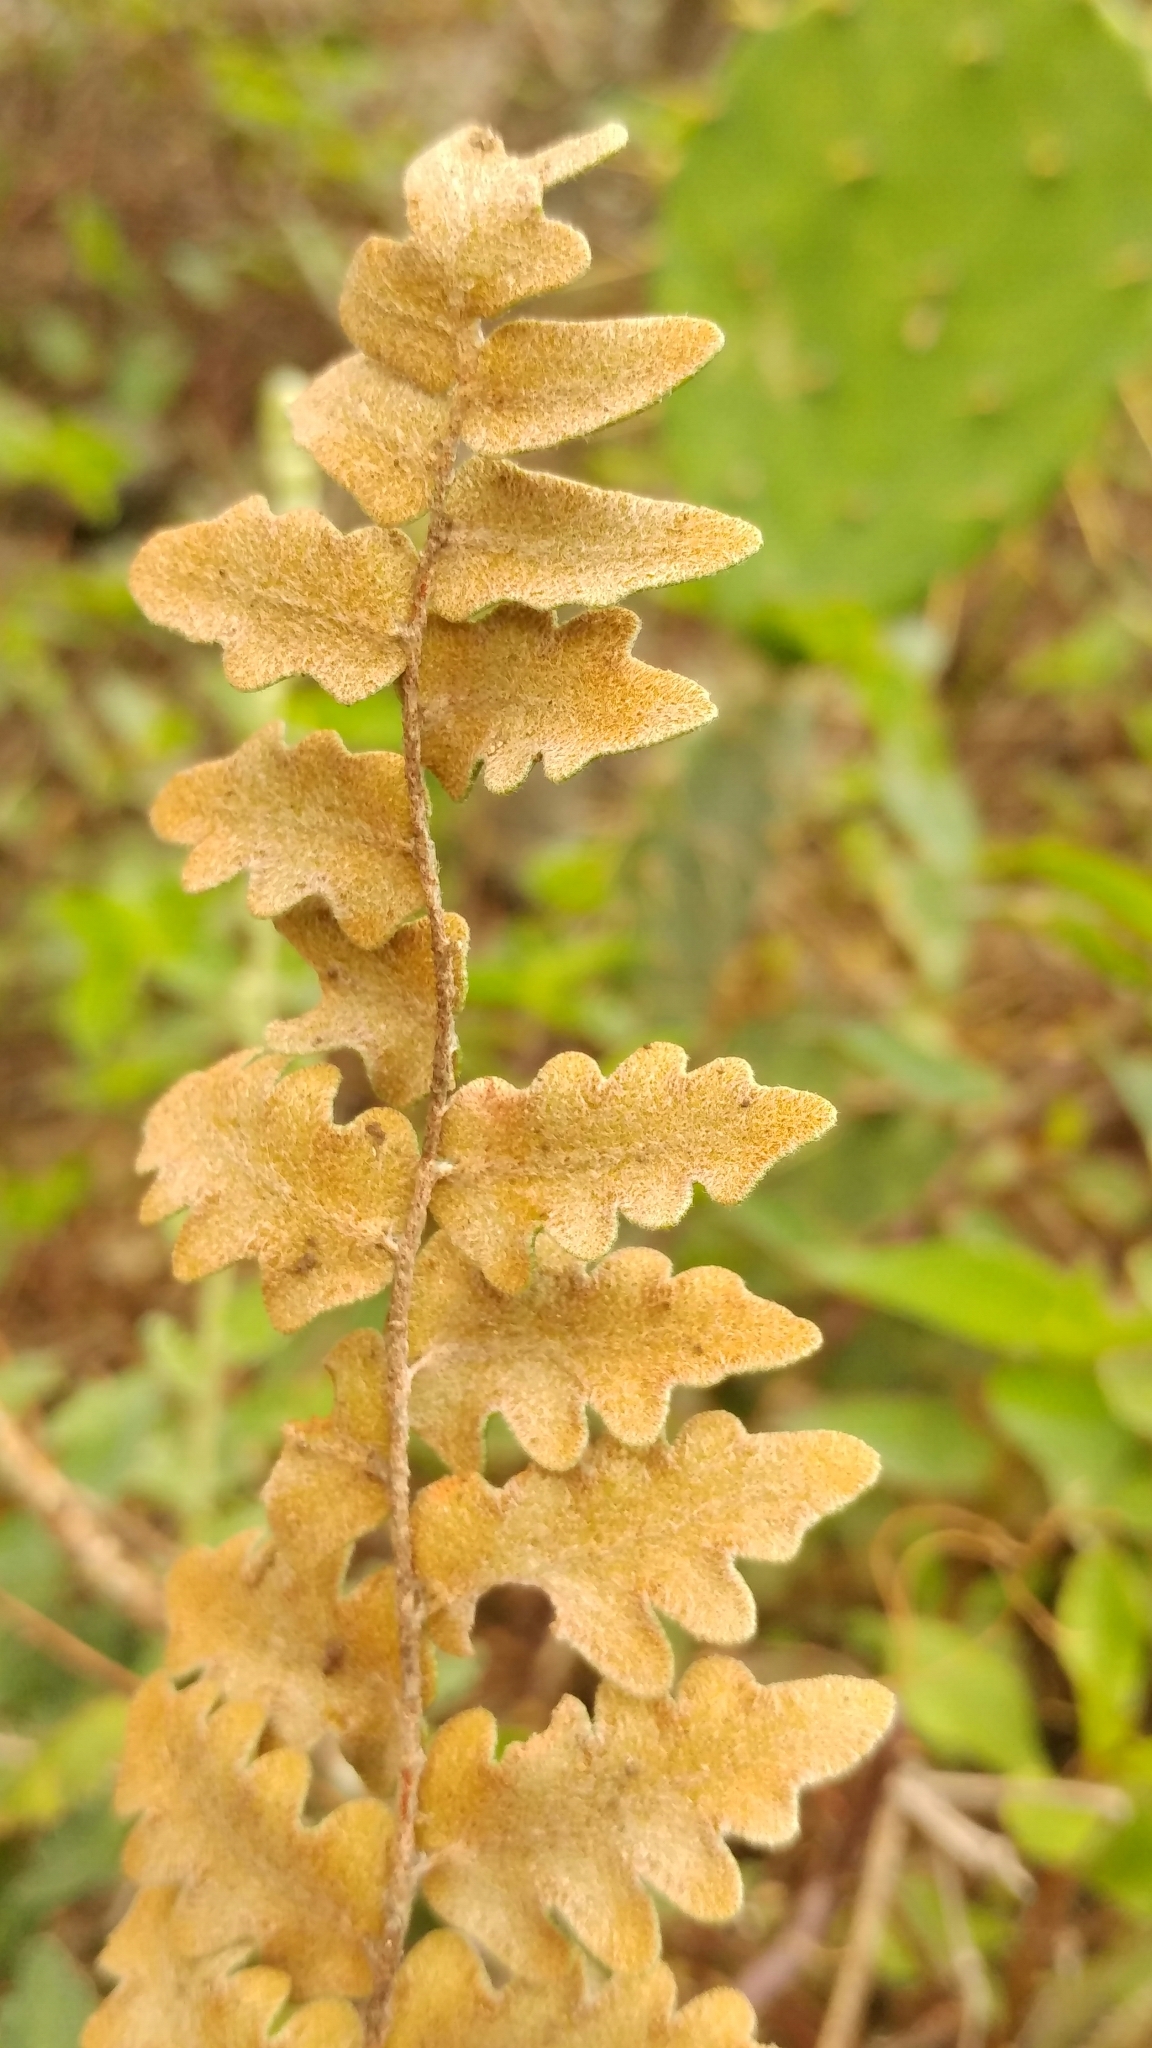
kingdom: Plantae
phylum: Tracheophyta
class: Polypodiopsida
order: Polypodiales
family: Pteridaceae
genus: Astrolepis
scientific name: Astrolepis sinuata
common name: Wavy scaly cloakfern
